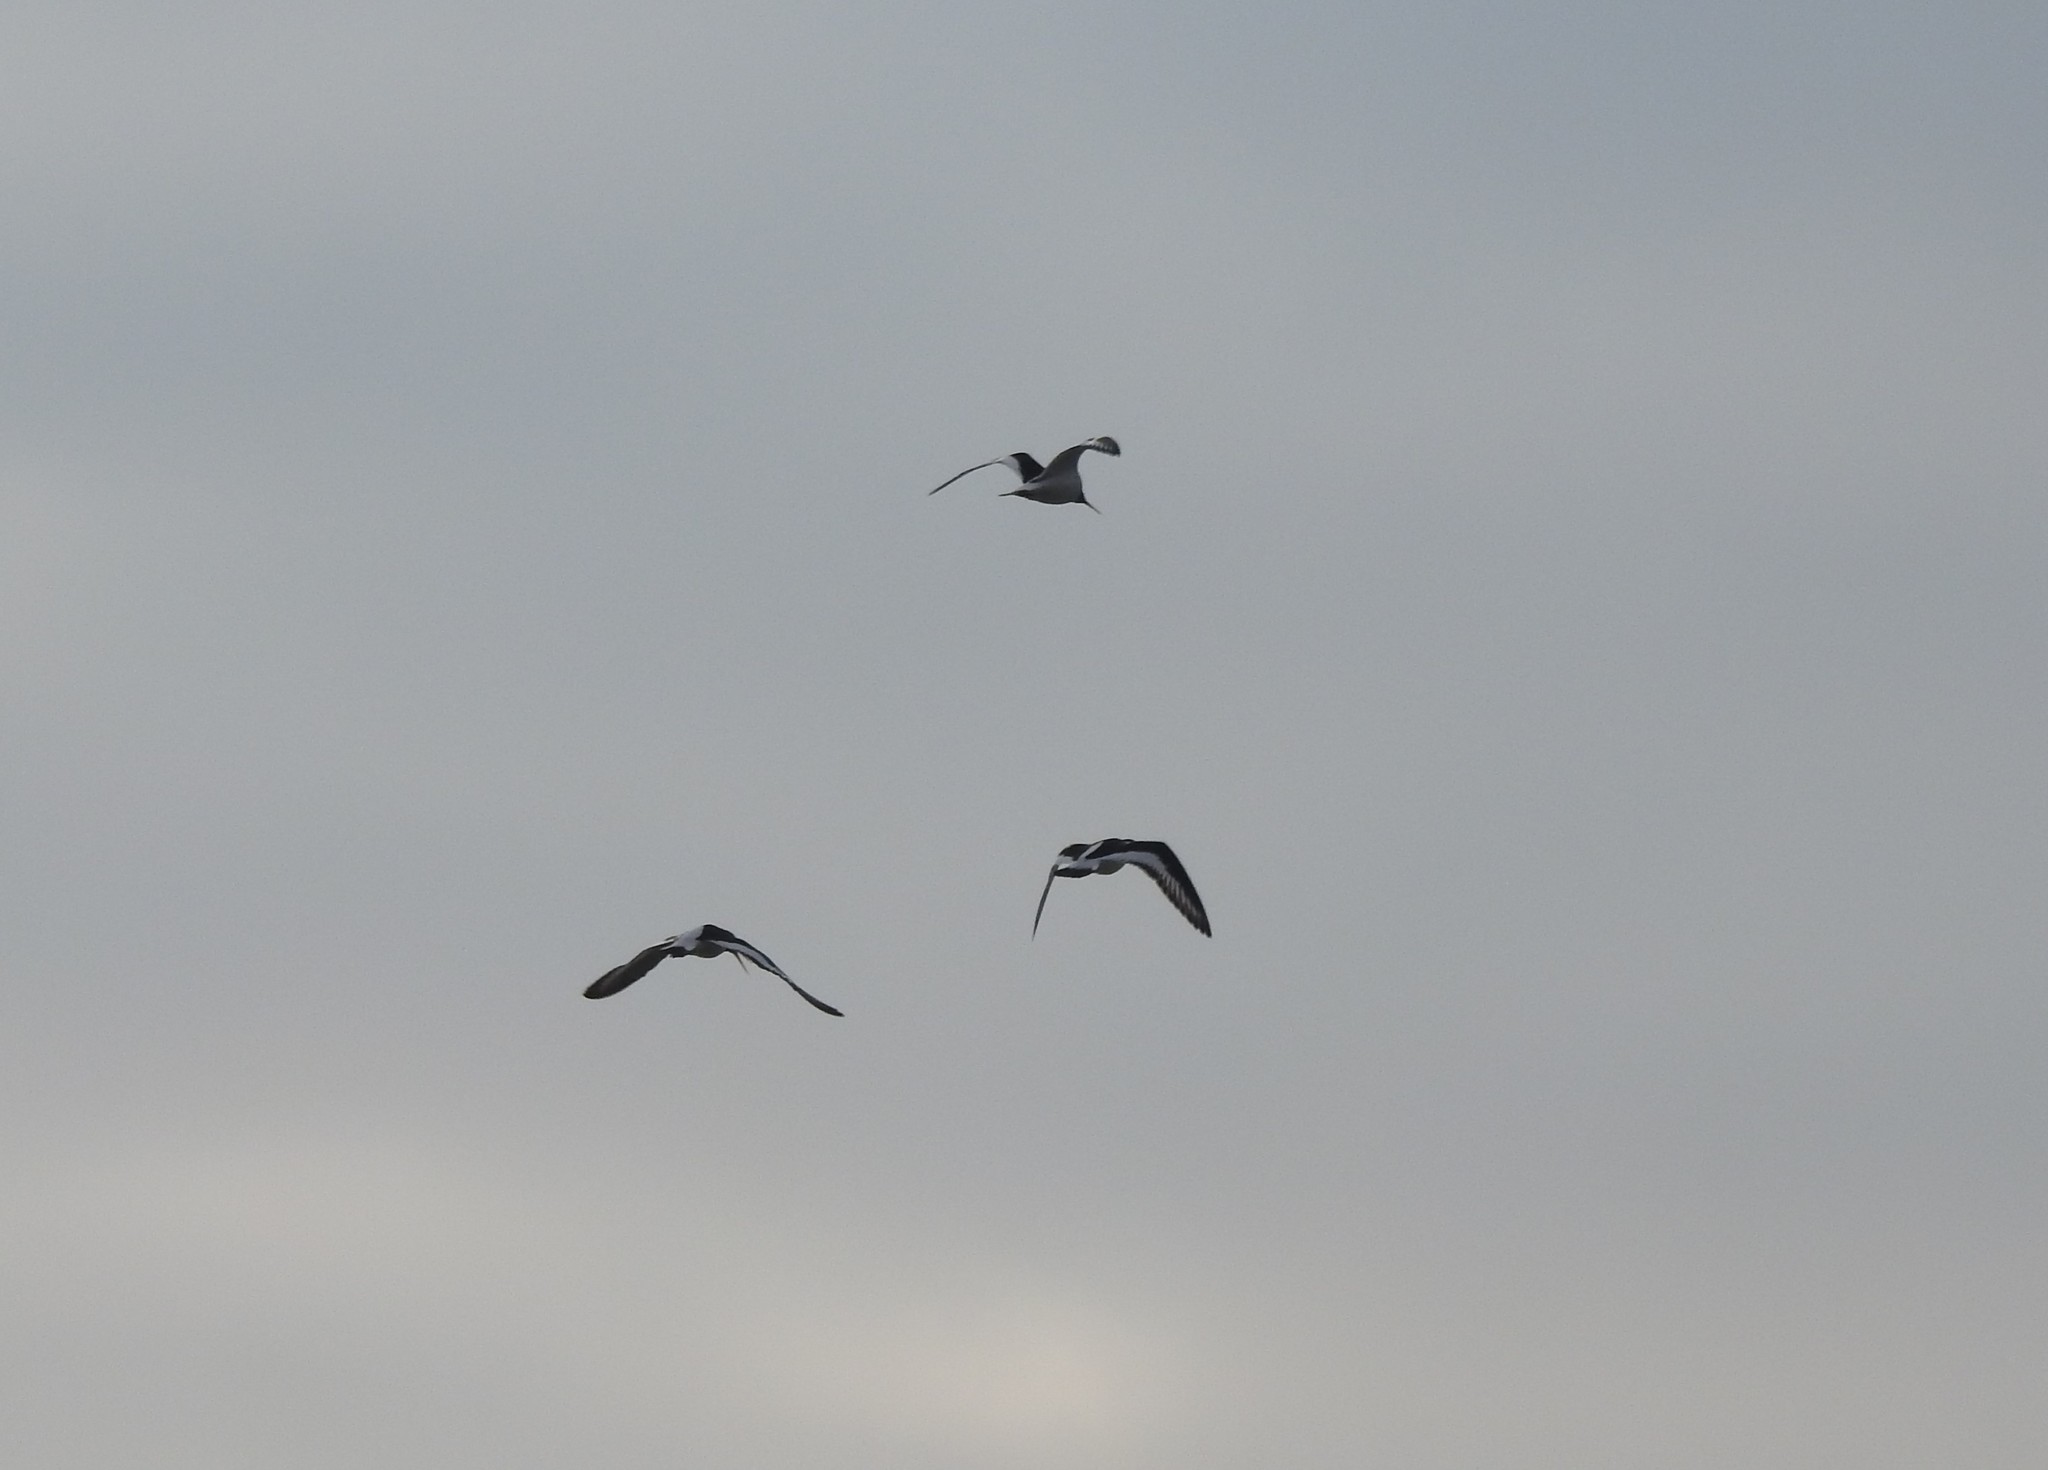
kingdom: Animalia
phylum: Chordata
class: Aves
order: Charadriiformes
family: Haematopodidae
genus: Haematopus
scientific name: Haematopus ostralegus
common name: Eurasian oystercatcher
